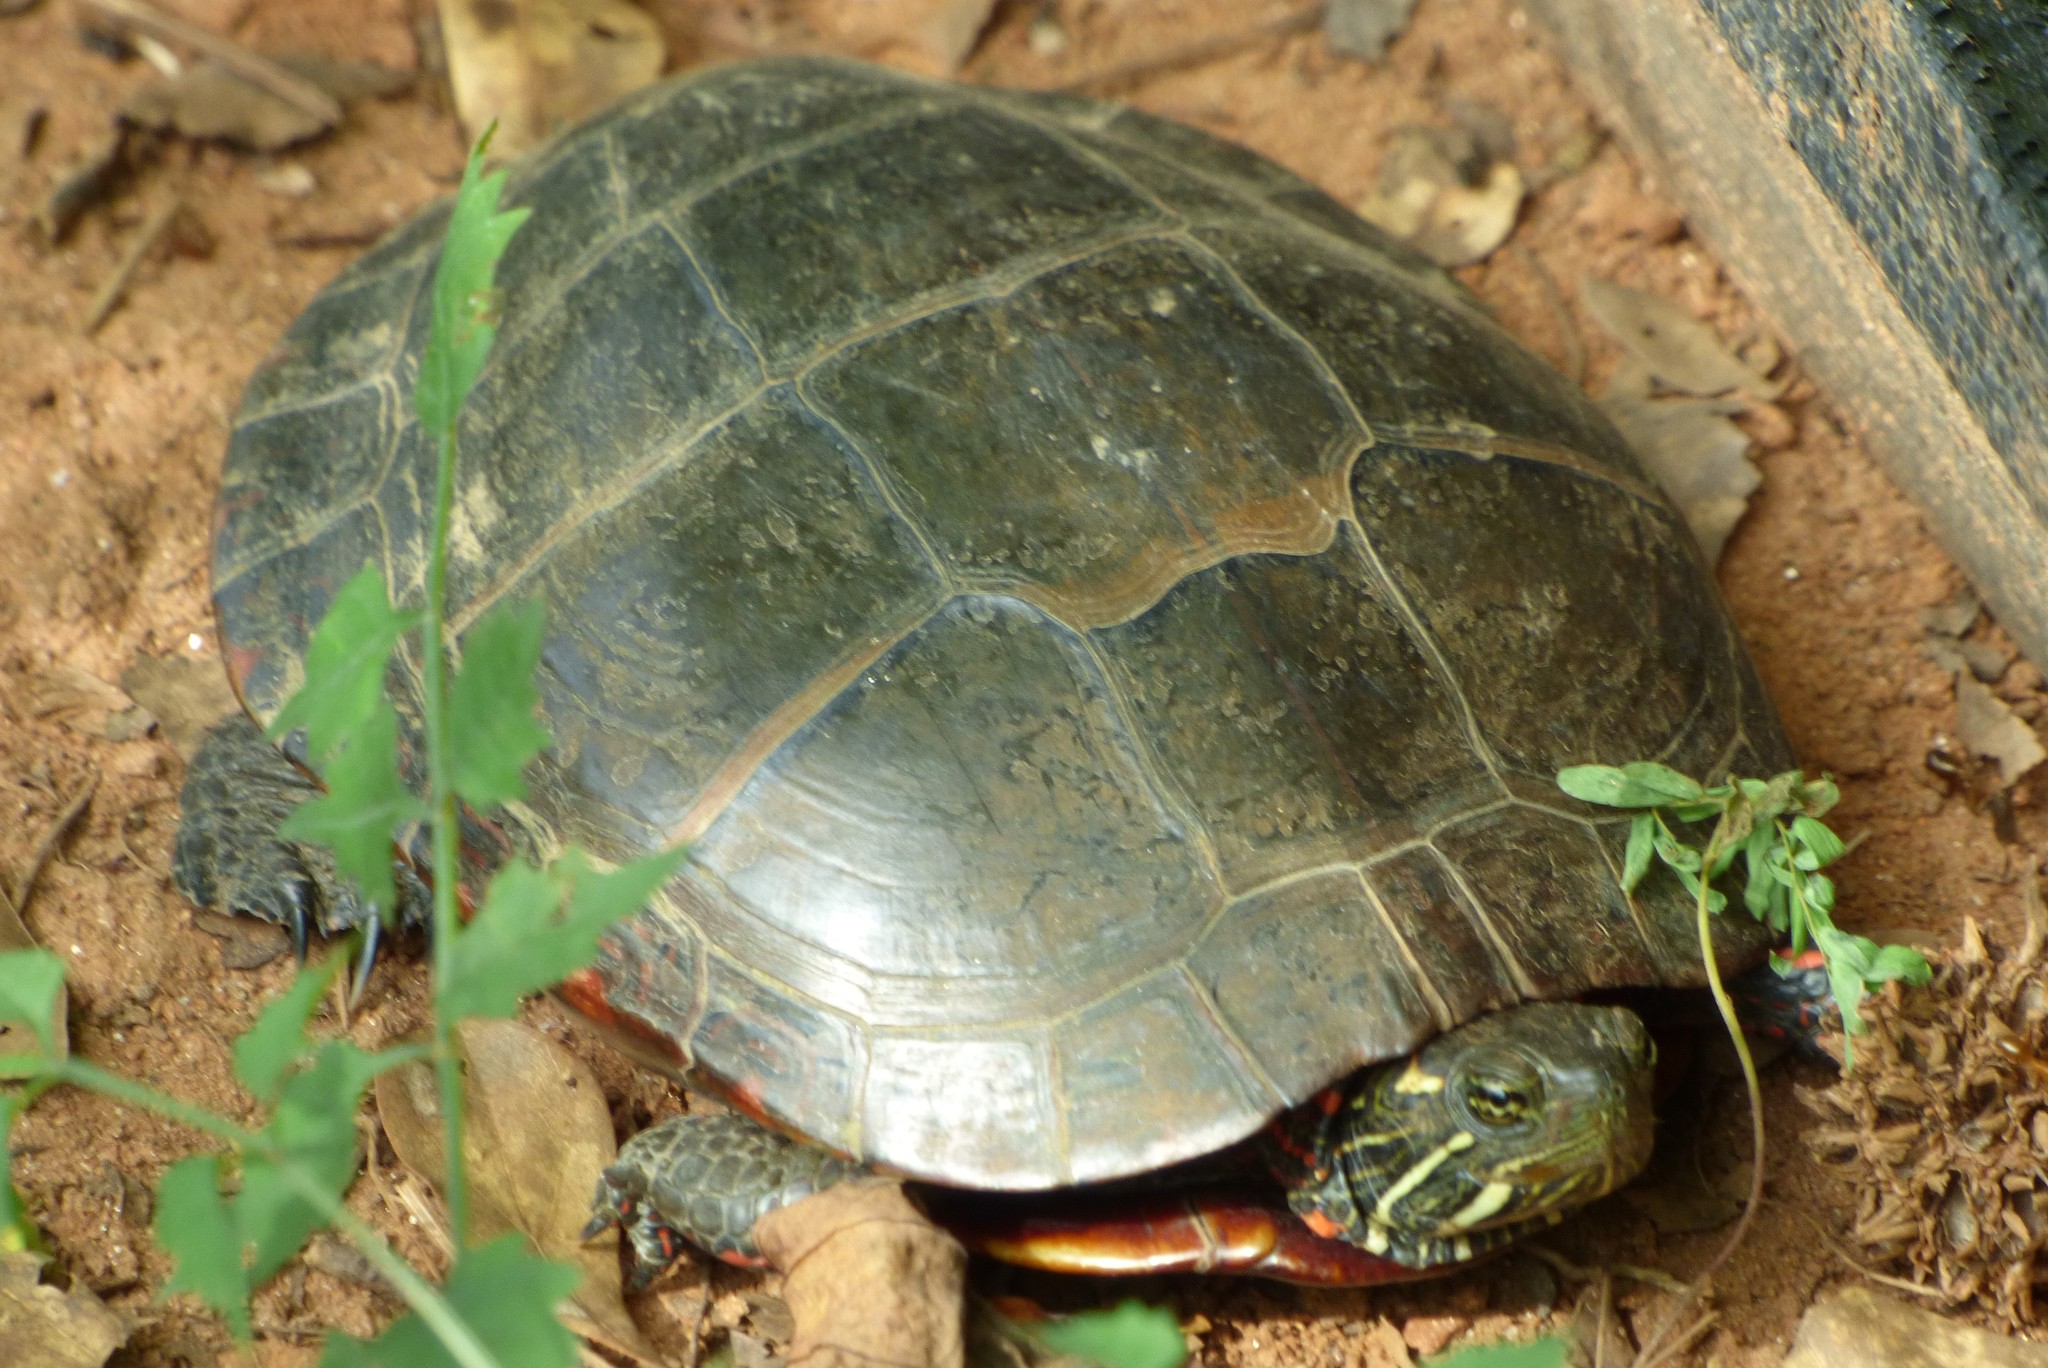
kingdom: Animalia
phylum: Chordata
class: Testudines
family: Emydidae
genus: Chrysemys
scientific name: Chrysemys picta
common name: Painted turtle
